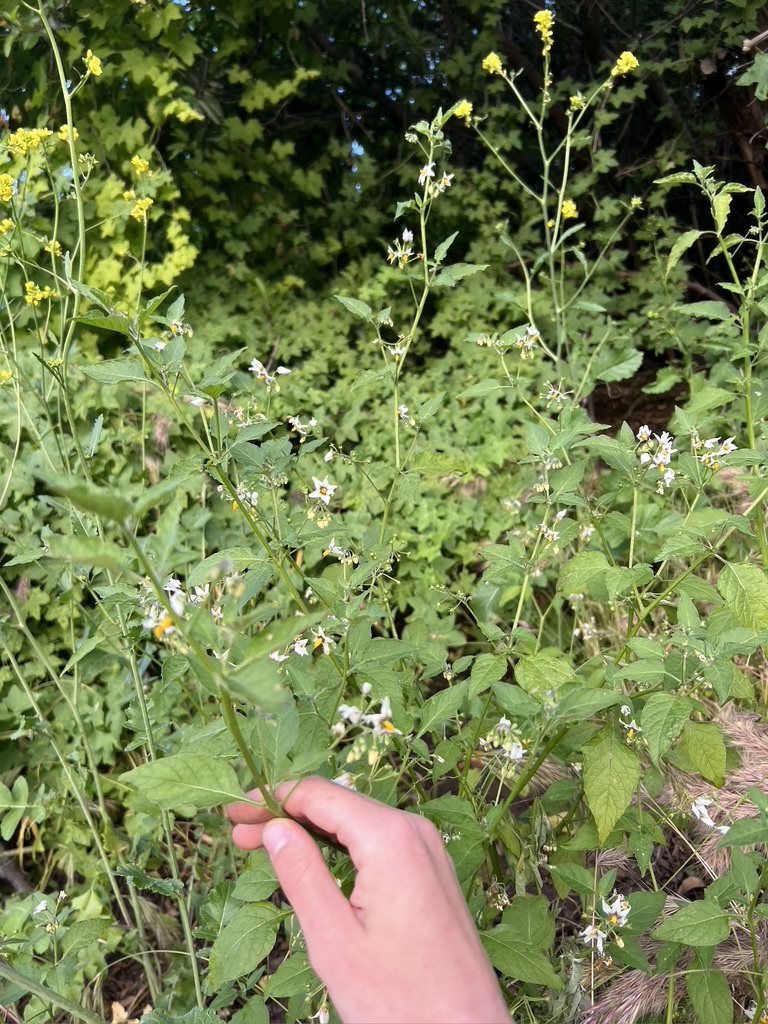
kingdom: Plantae
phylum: Tracheophyta
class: Magnoliopsida
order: Solanales
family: Solanaceae
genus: Solanum
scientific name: Solanum douglasii
